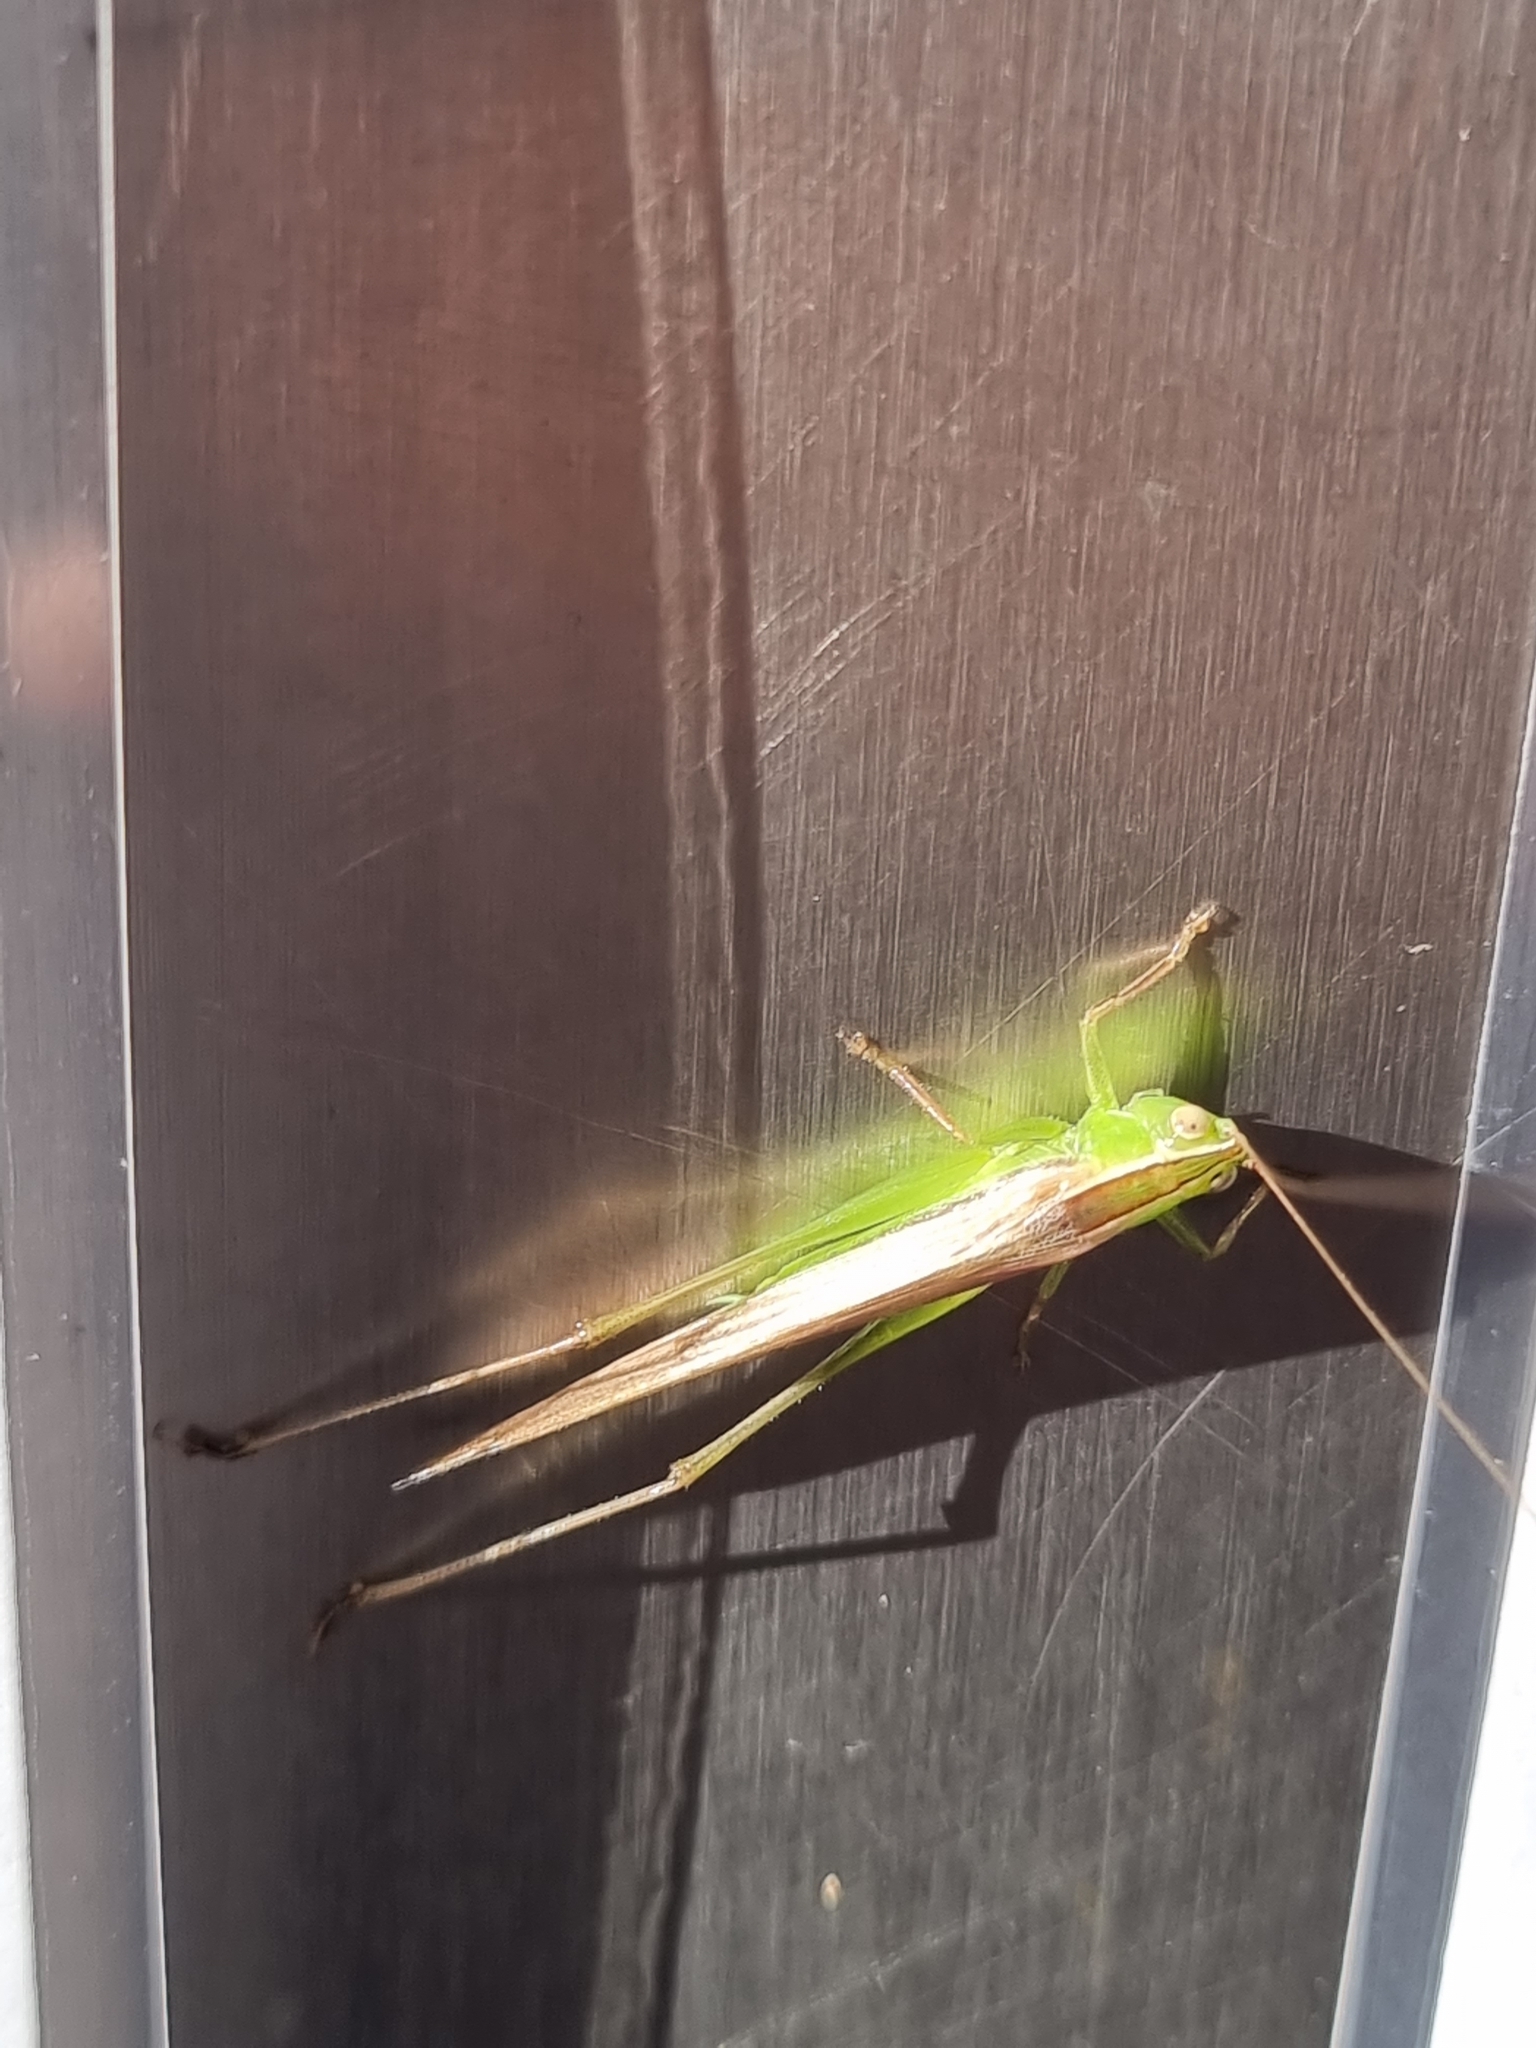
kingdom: Animalia
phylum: Arthropoda
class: Insecta
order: Orthoptera
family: Tettigoniidae
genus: Conocephalus
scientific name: Conocephalus upoluensis
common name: Upolu meadow katydid
